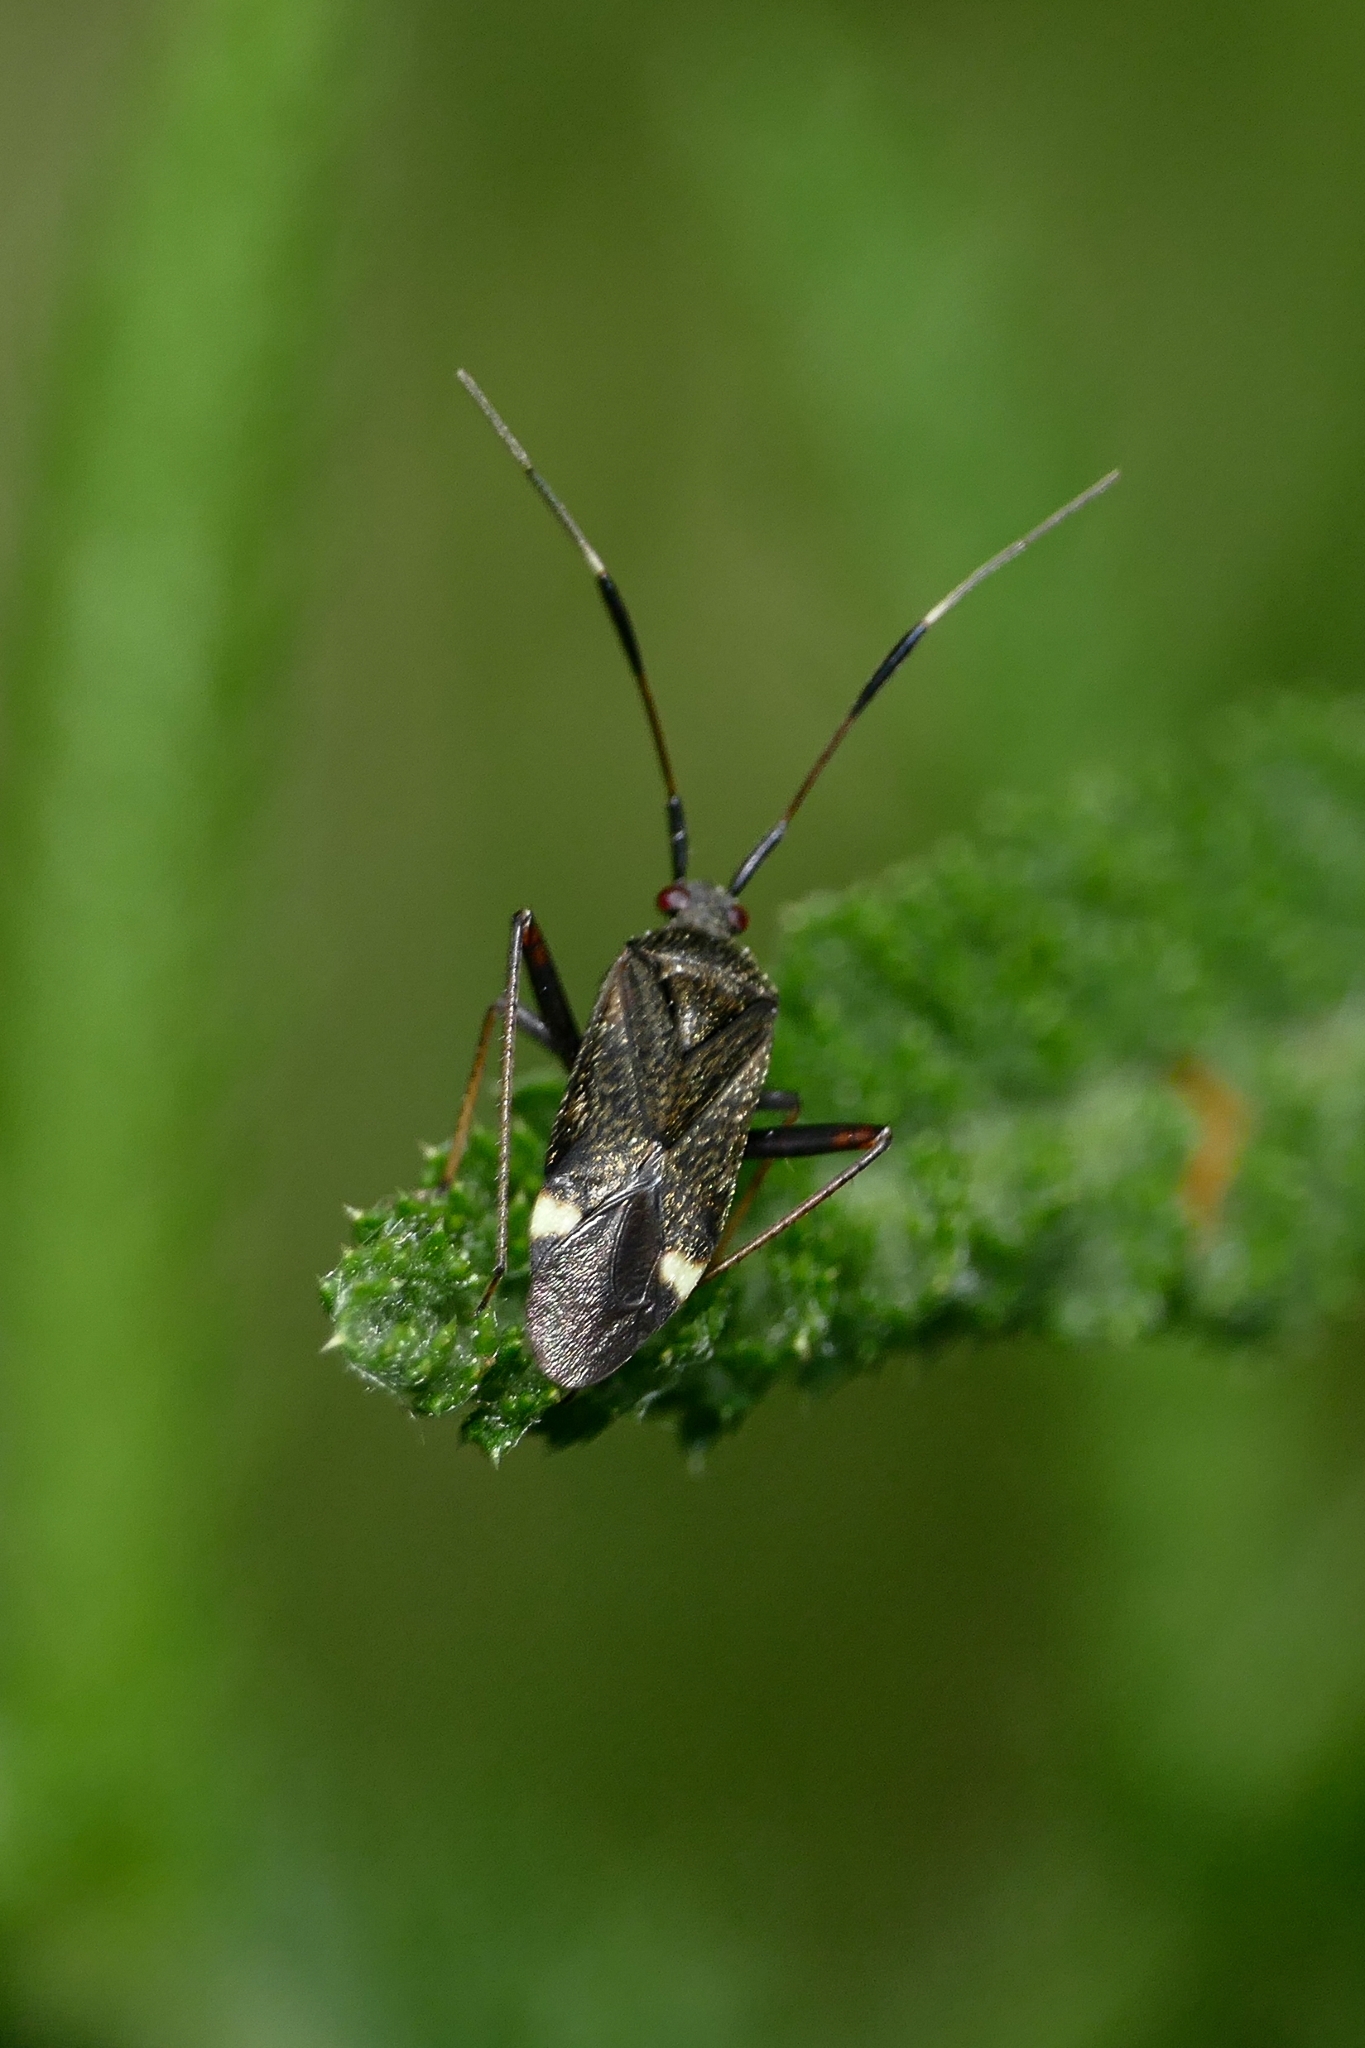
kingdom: Animalia
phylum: Arthropoda
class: Insecta
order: Hemiptera
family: Miridae
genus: Closterotomus
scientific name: Closterotomus biclavatus
